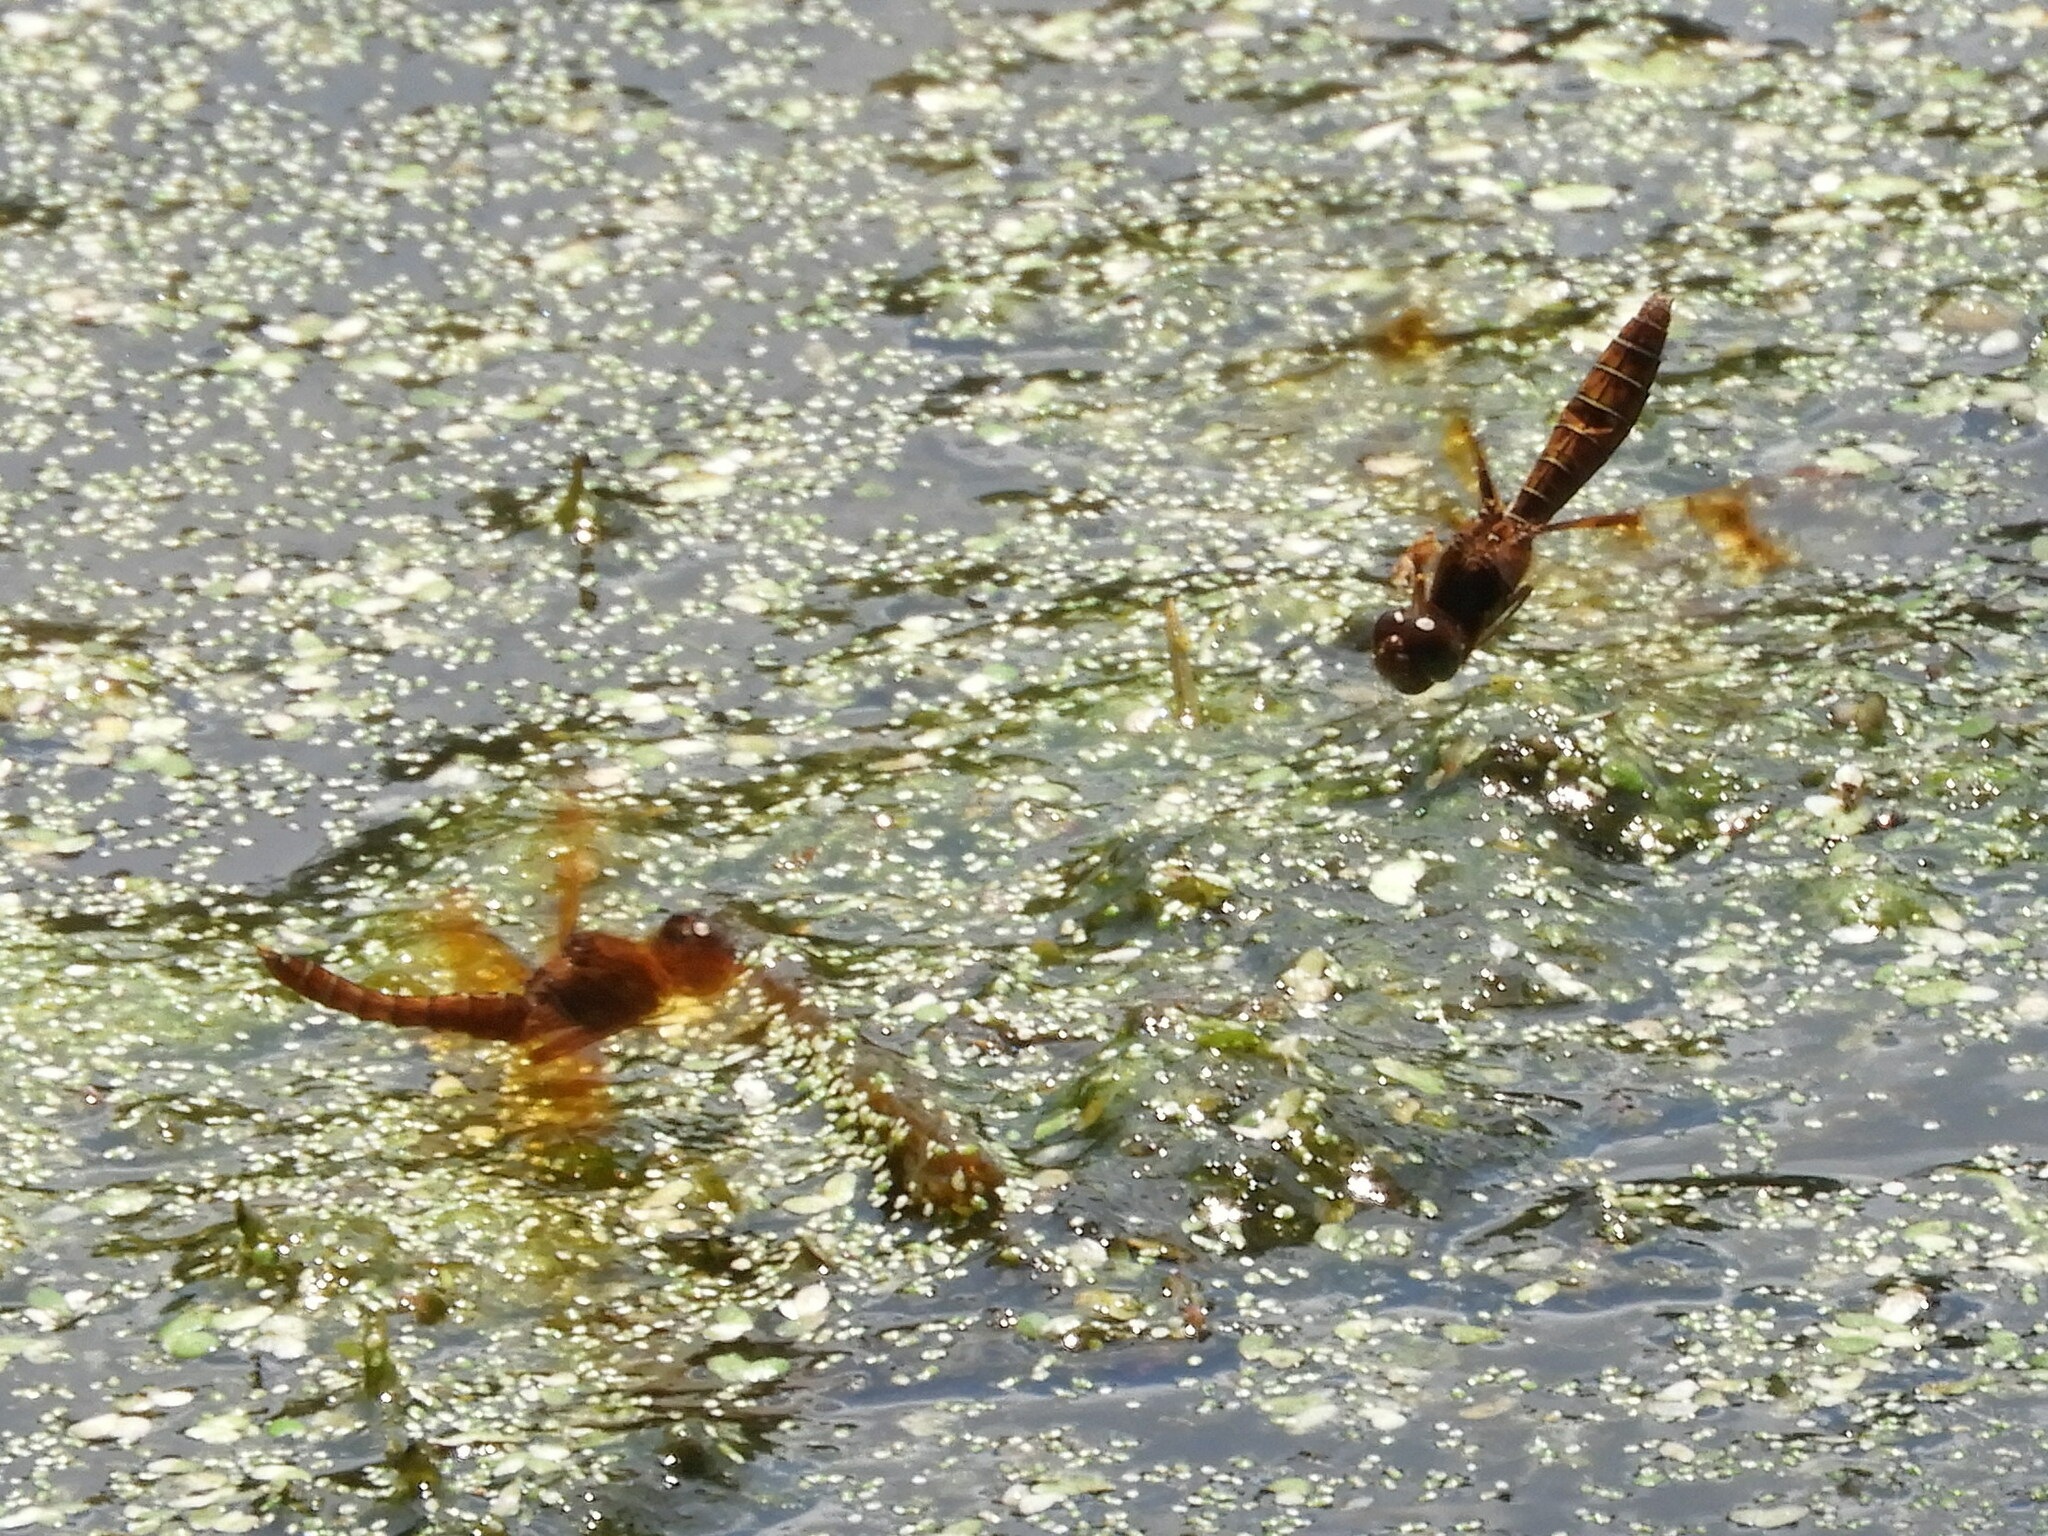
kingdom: Animalia
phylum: Arthropoda
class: Insecta
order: Odonata
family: Libellulidae
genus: Perithemis
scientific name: Perithemis tenera
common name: Eastern amberwing
